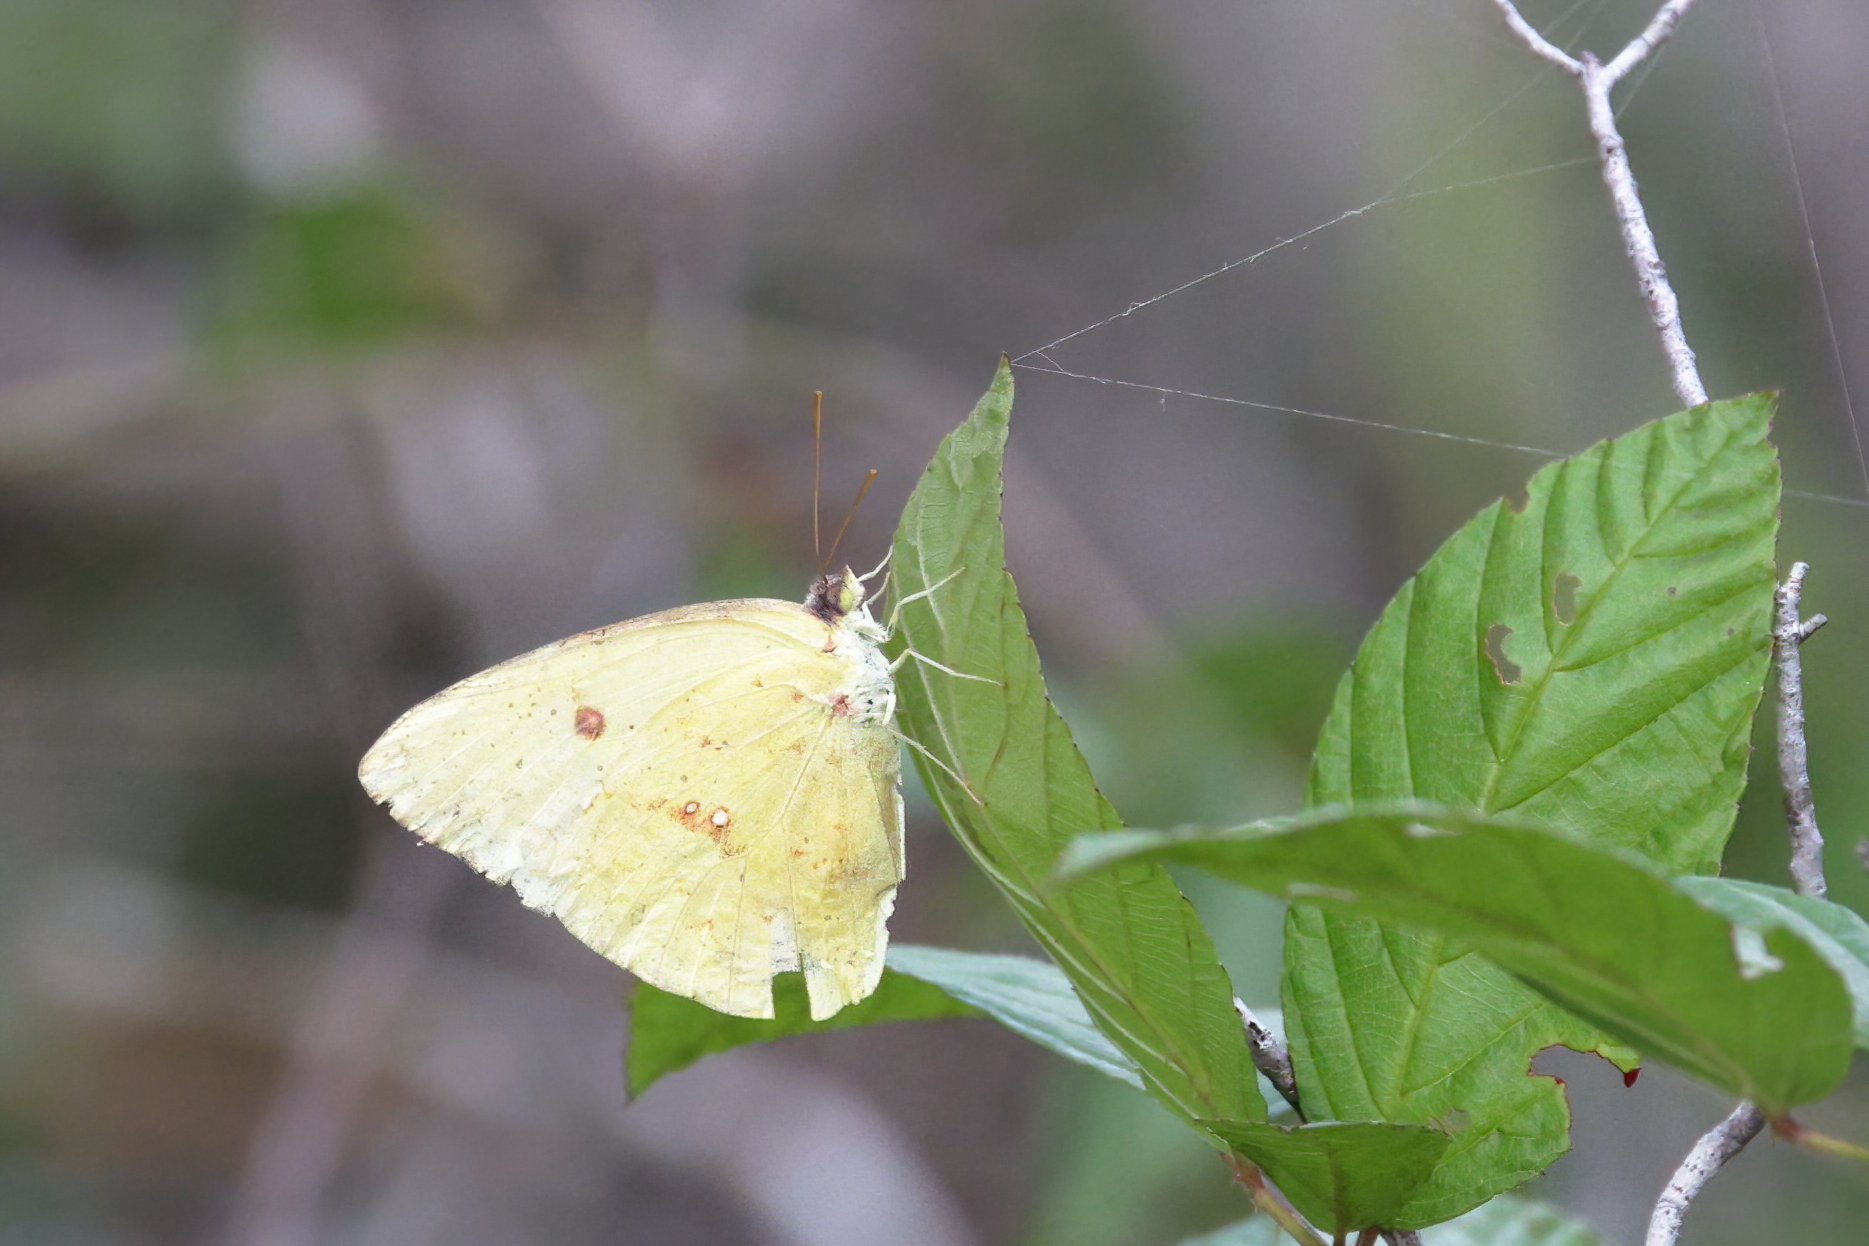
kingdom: Animalia
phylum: Arthropoda
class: Insecta
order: Lepidoptera
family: Pieridae
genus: Phoebis
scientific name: Phoebis sennae
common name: Cloudless sulphur
